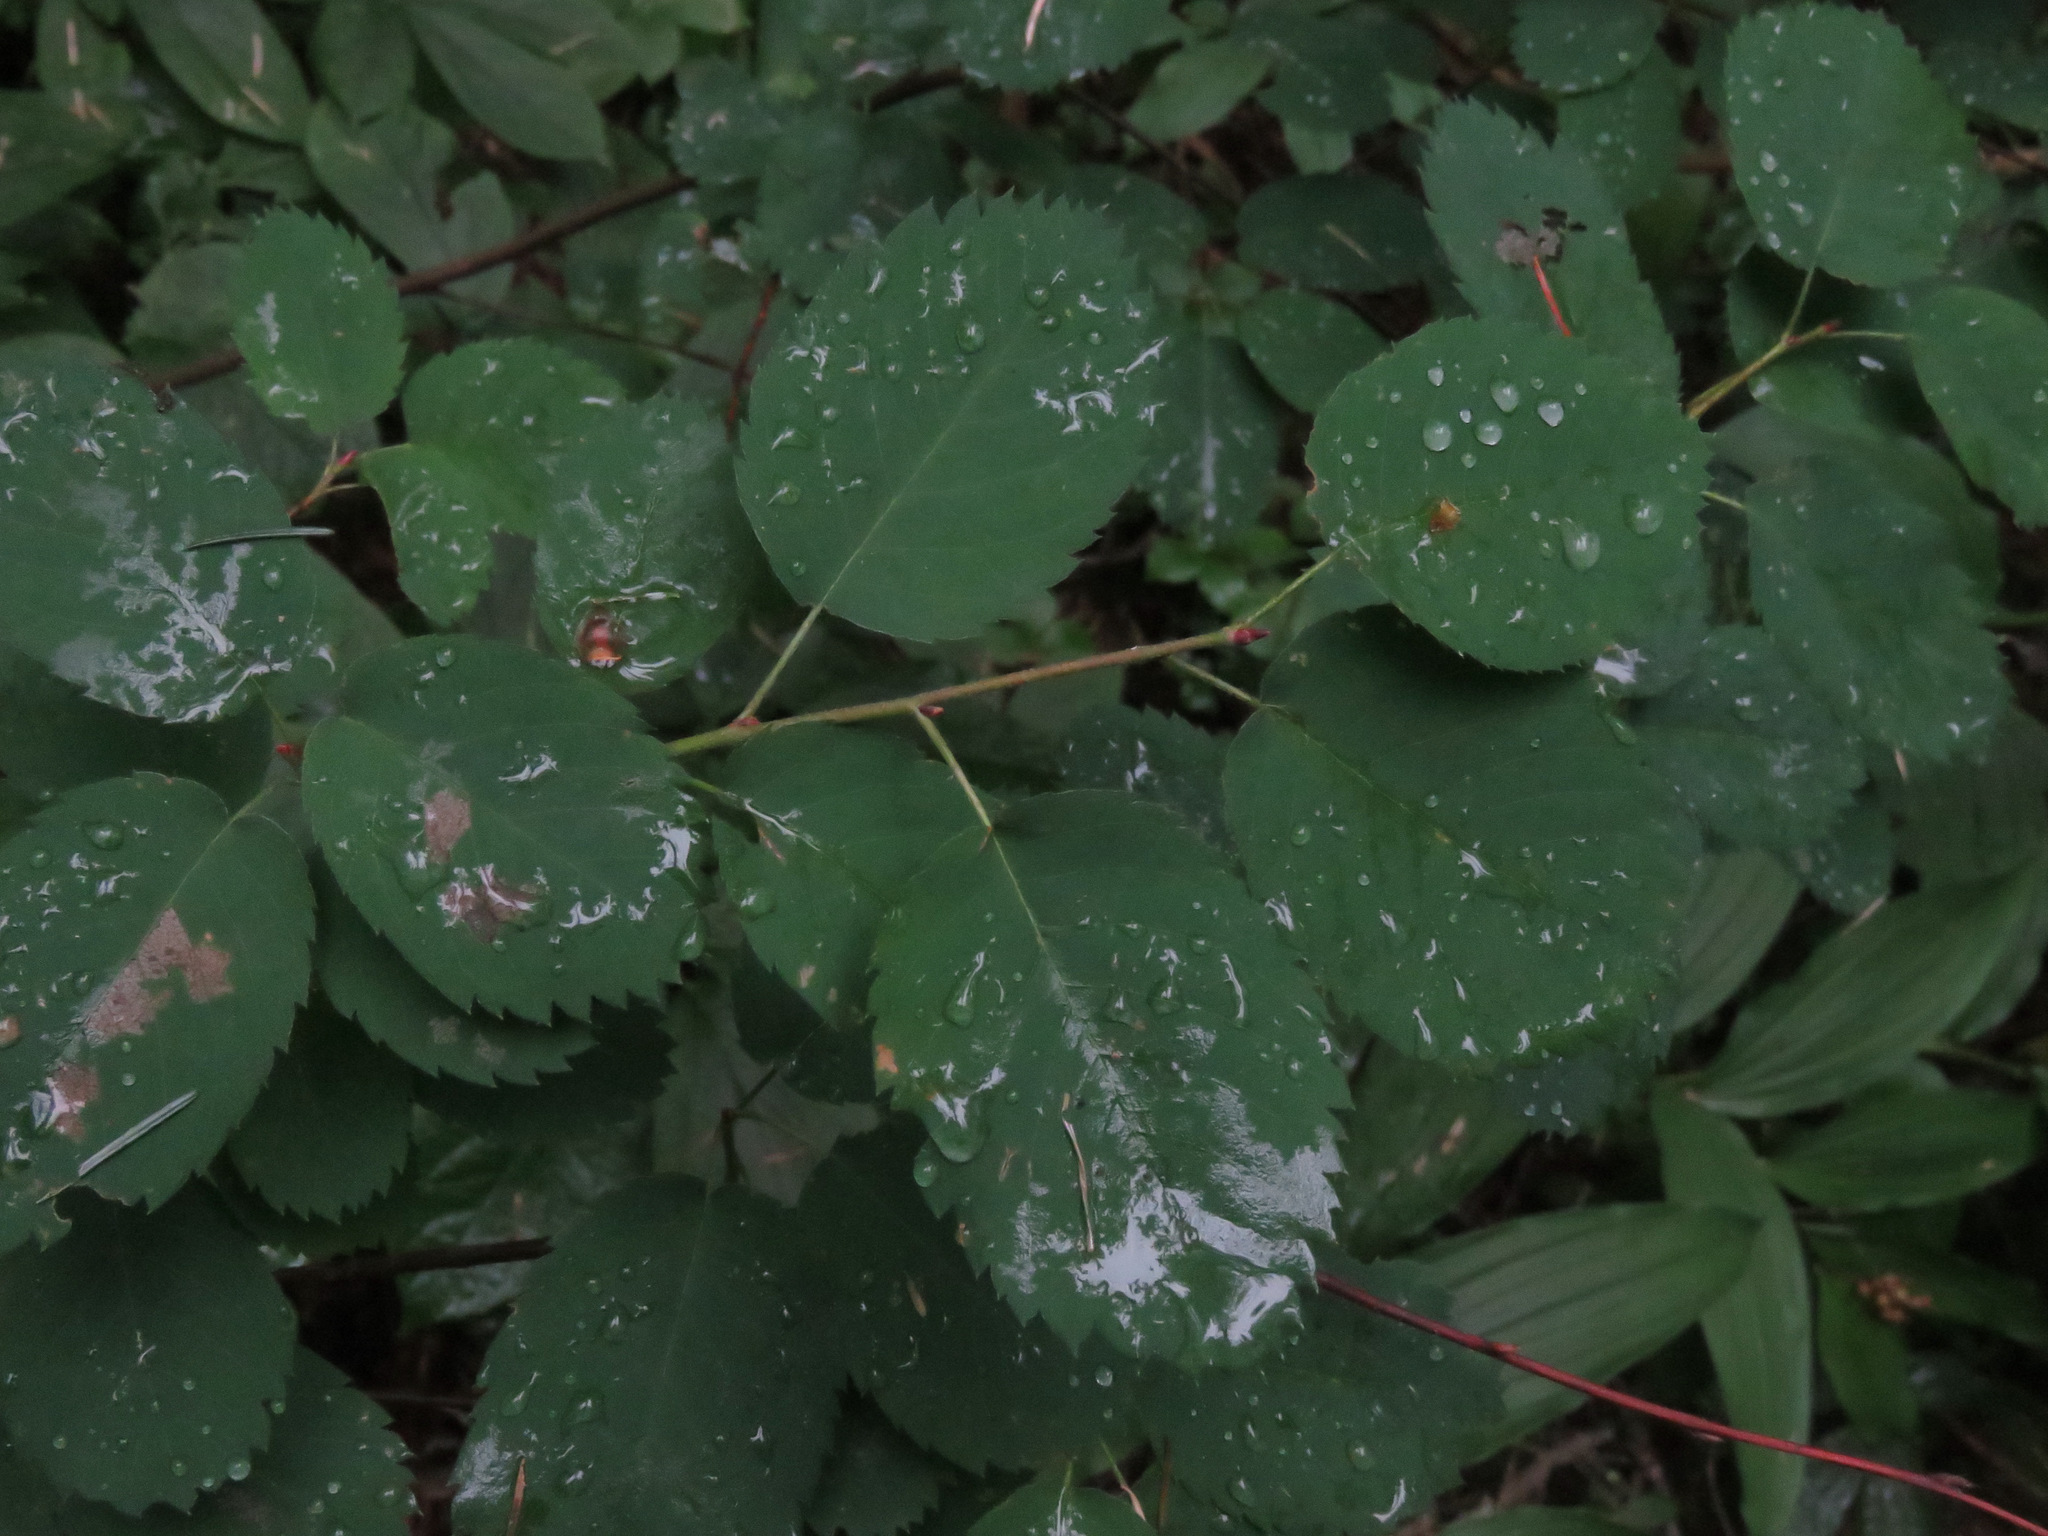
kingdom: Plantae
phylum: Tracheophyta
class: Magnoliopsida
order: Rosales
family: Rosaceae
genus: Amelanchier
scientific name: Amelanchier alnifolia
